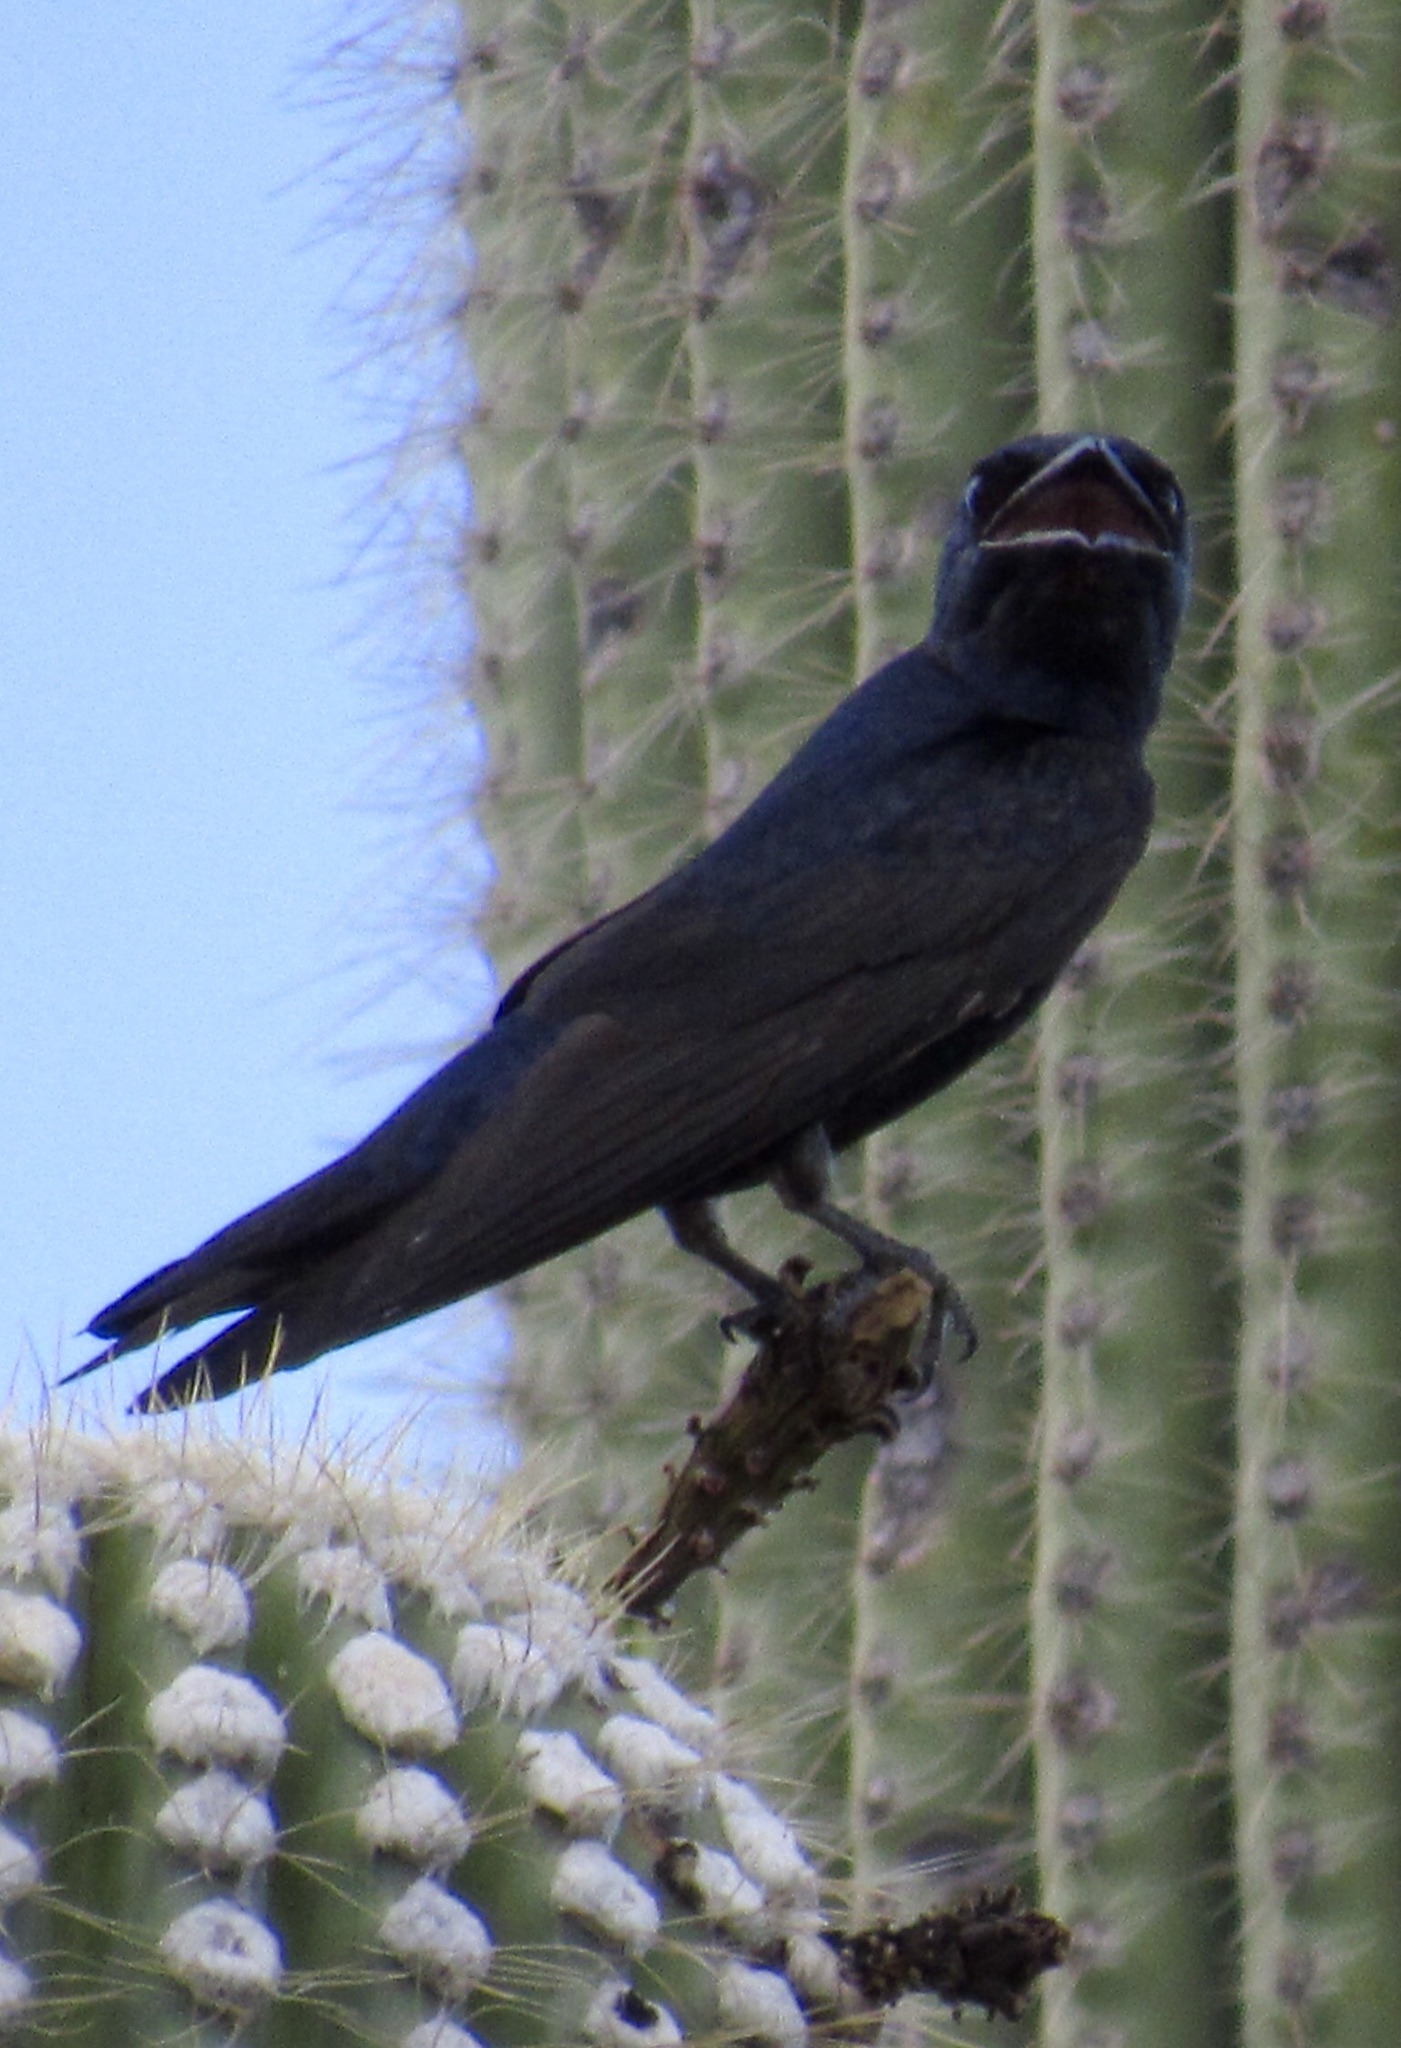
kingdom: Animalia
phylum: Chordata
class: Aves
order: Passeriformes
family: Hirundinidae
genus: Progne
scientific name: Progne subis
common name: Purple martin
